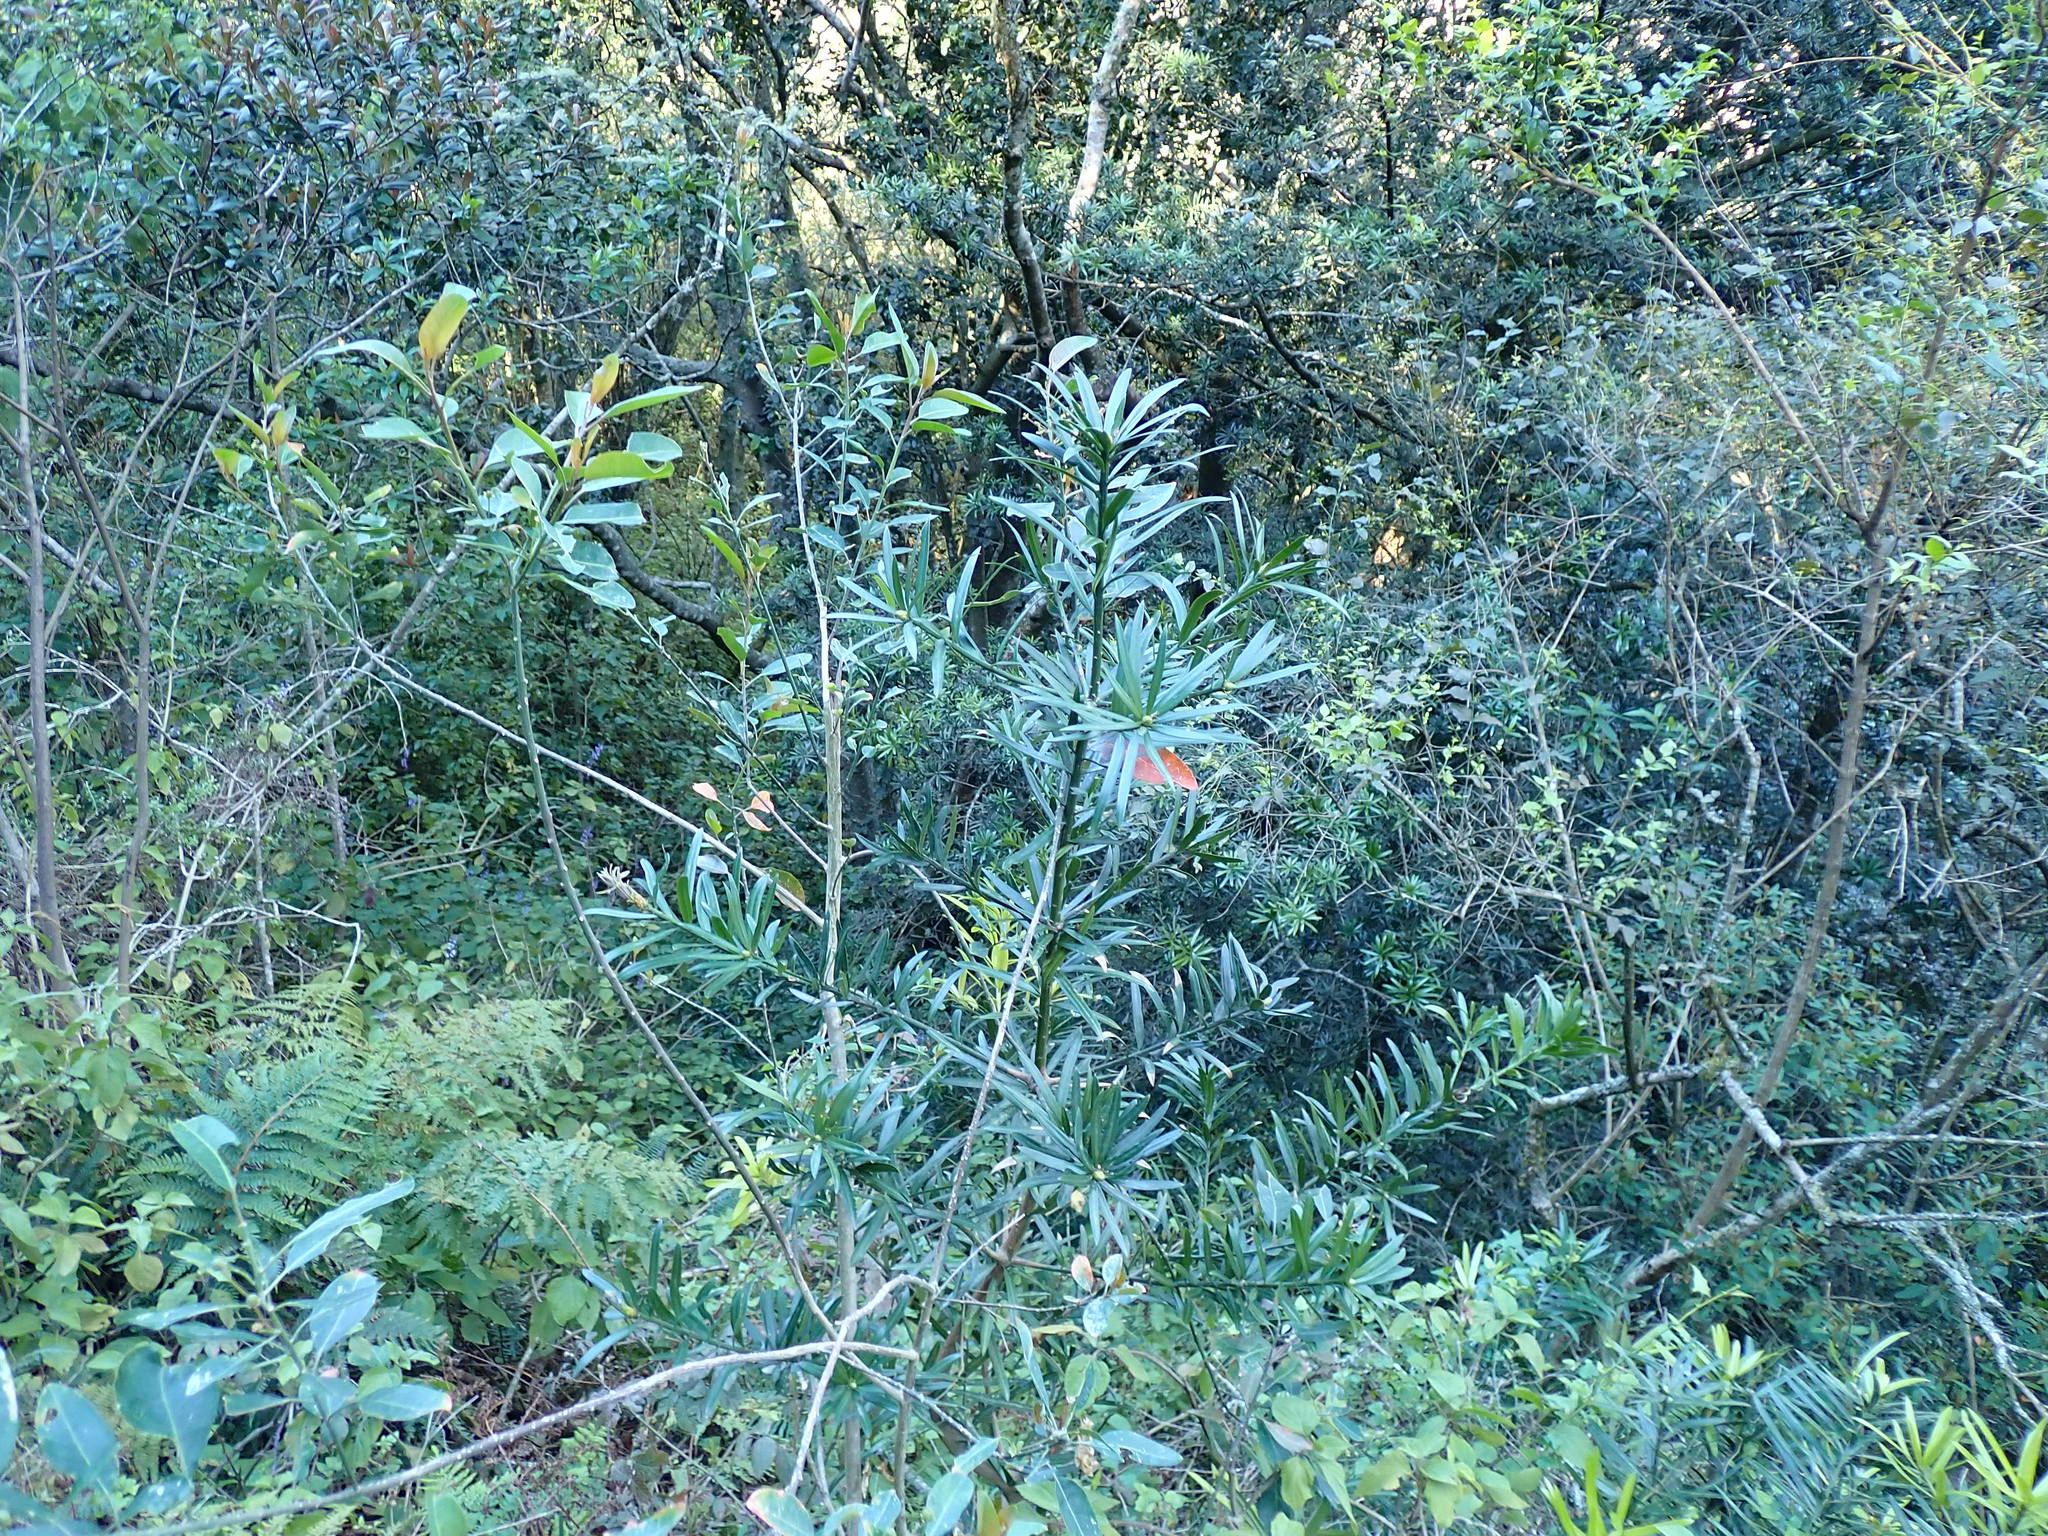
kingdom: Plantae
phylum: Tracheophyta
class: Pinopsida
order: Pinales
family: Podocarpaceae
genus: Podocarpus
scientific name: Podocarpus latifolius
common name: True yellowwood
